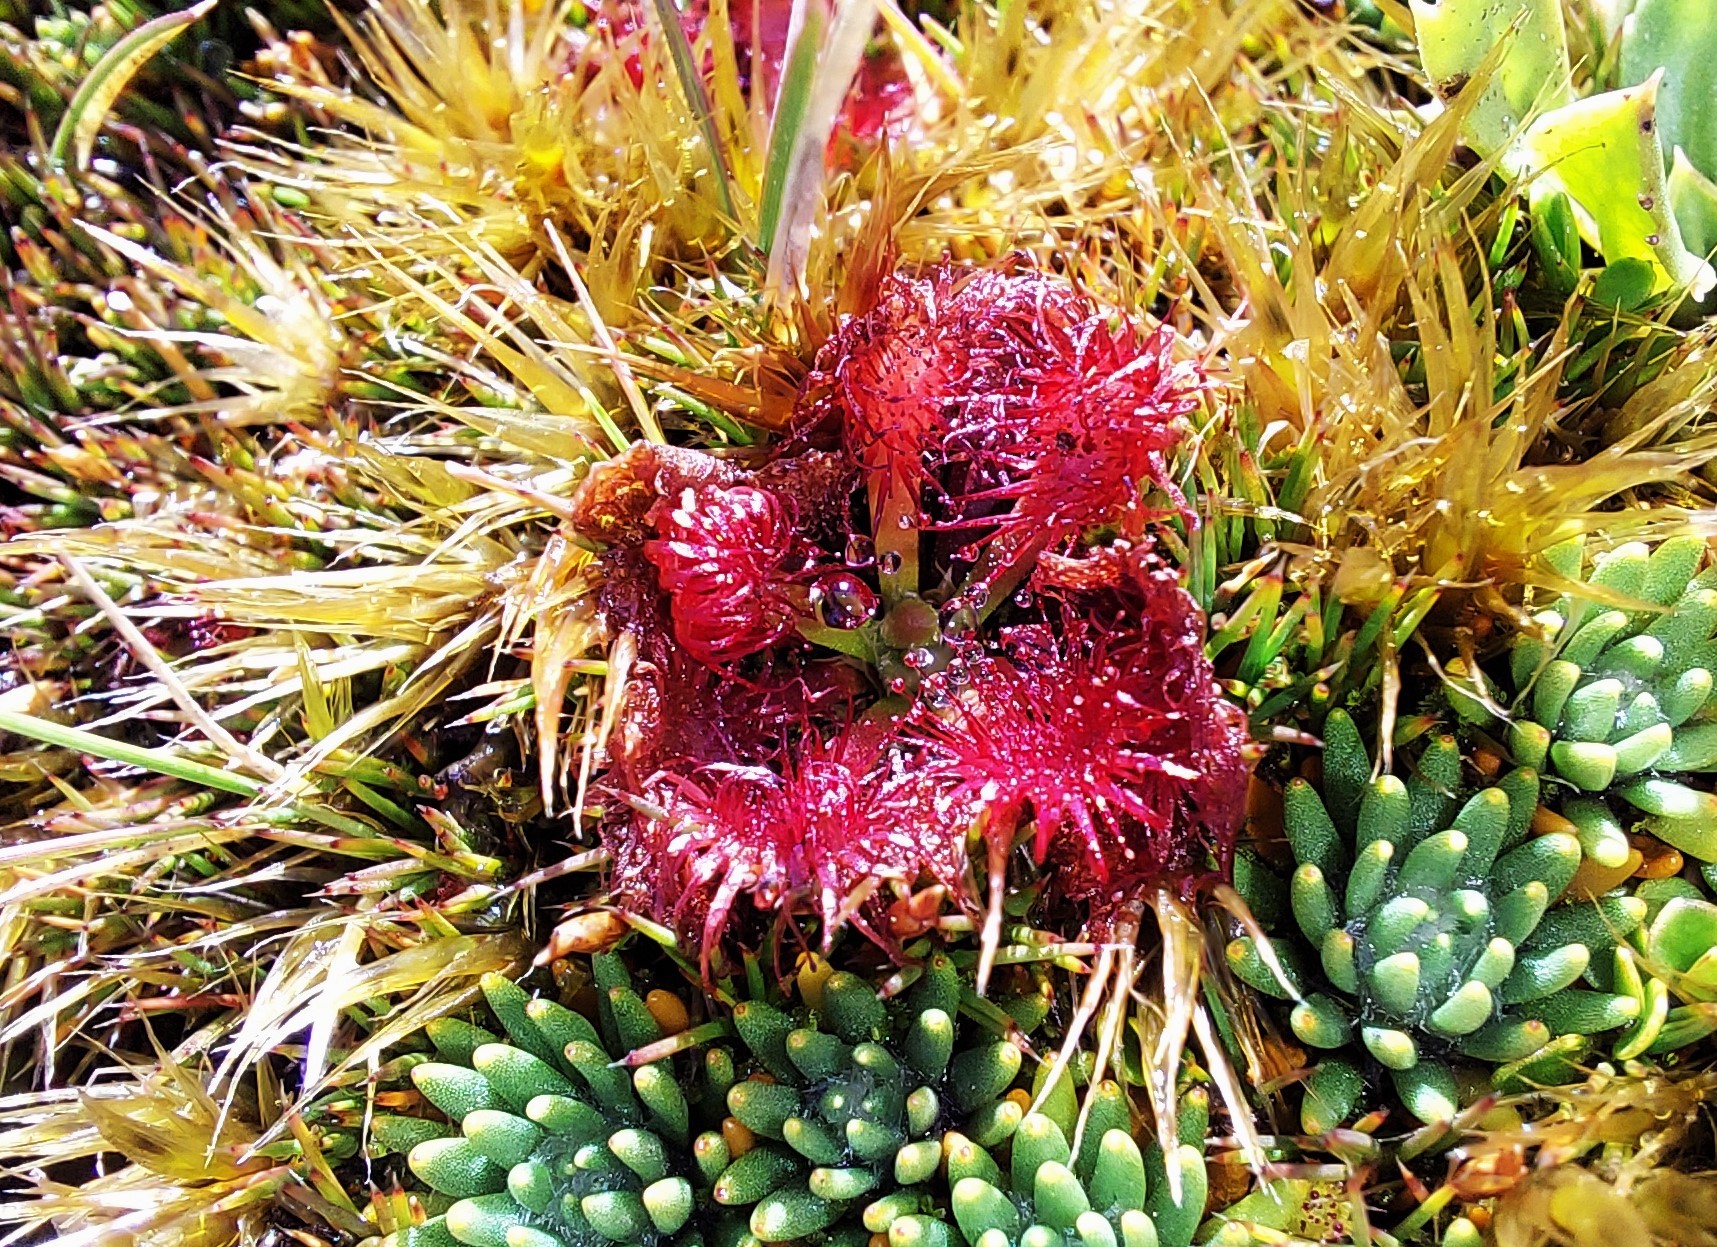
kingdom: Plantae
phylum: Tracheophyta
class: Magnoliopsida
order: Caryophyllales
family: Droseraceae
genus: Drosera
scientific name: Drosera spatulata
